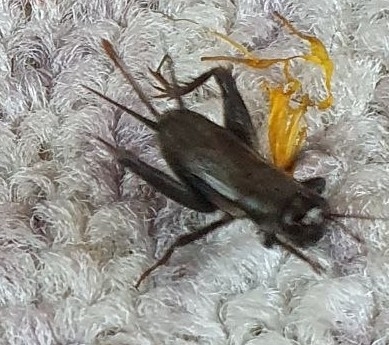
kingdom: Animalia
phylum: Arthropoda
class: Insecta
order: Orthoptera
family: Gryllidae
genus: Modicogryllus
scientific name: Modicogryllus frontalis
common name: Eastern cricket
